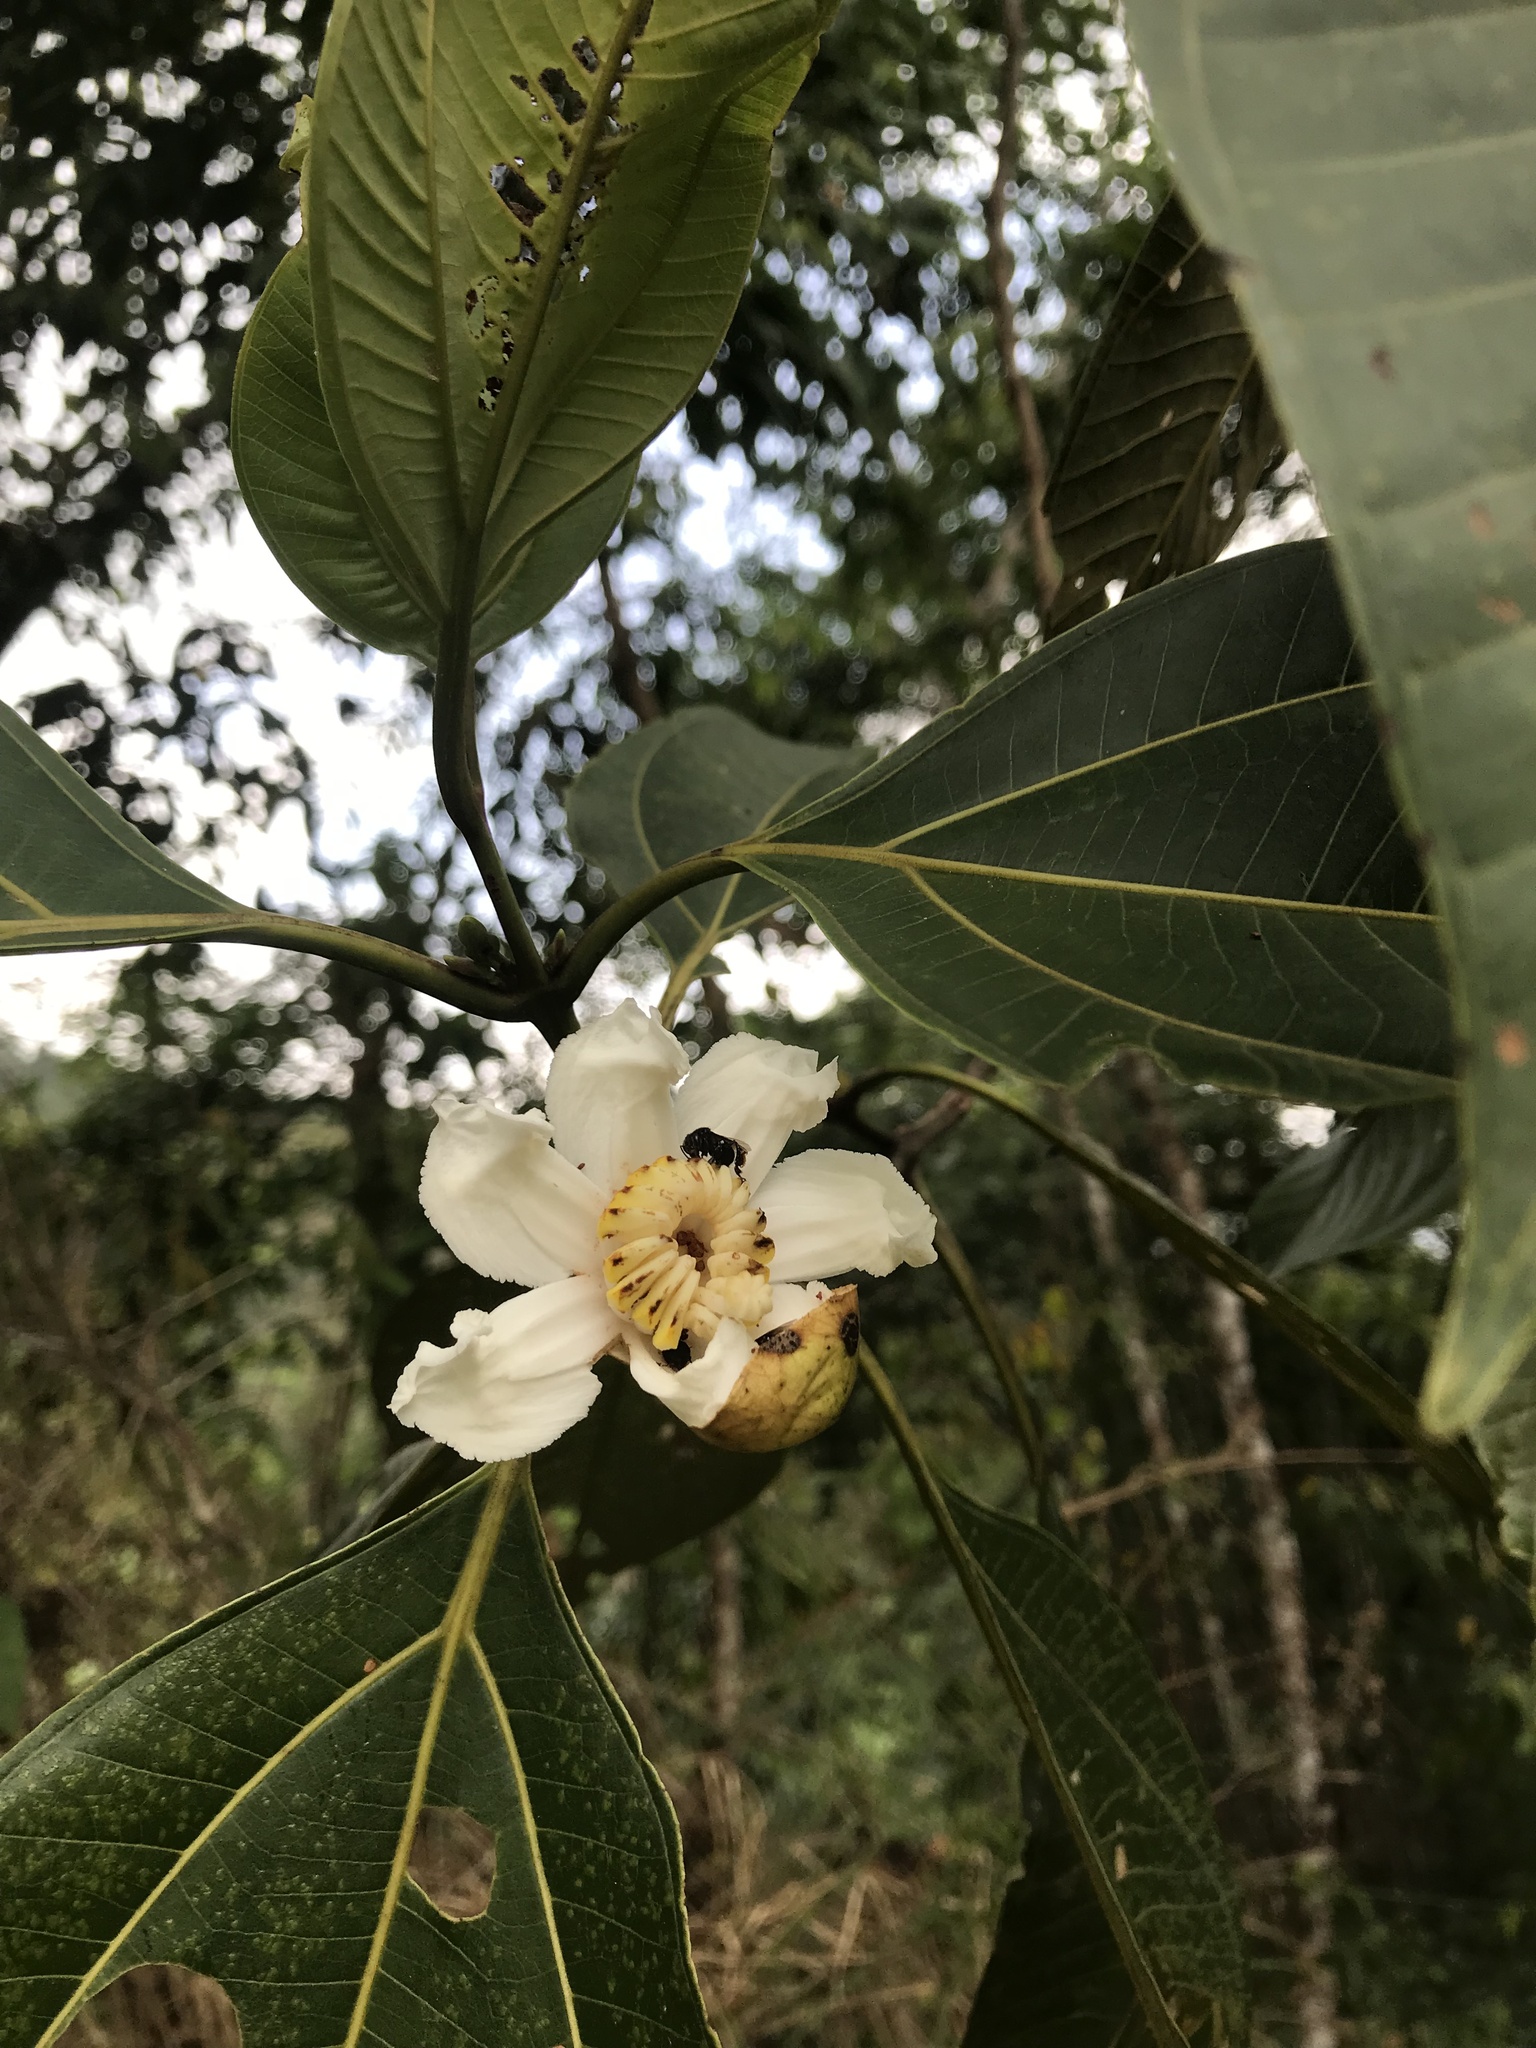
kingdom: Plantae
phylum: Tracheophyta
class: Magnoliopsida
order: Myrtales
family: Melastomataceae
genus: Bellucia
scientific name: Bellucia grossularioides
